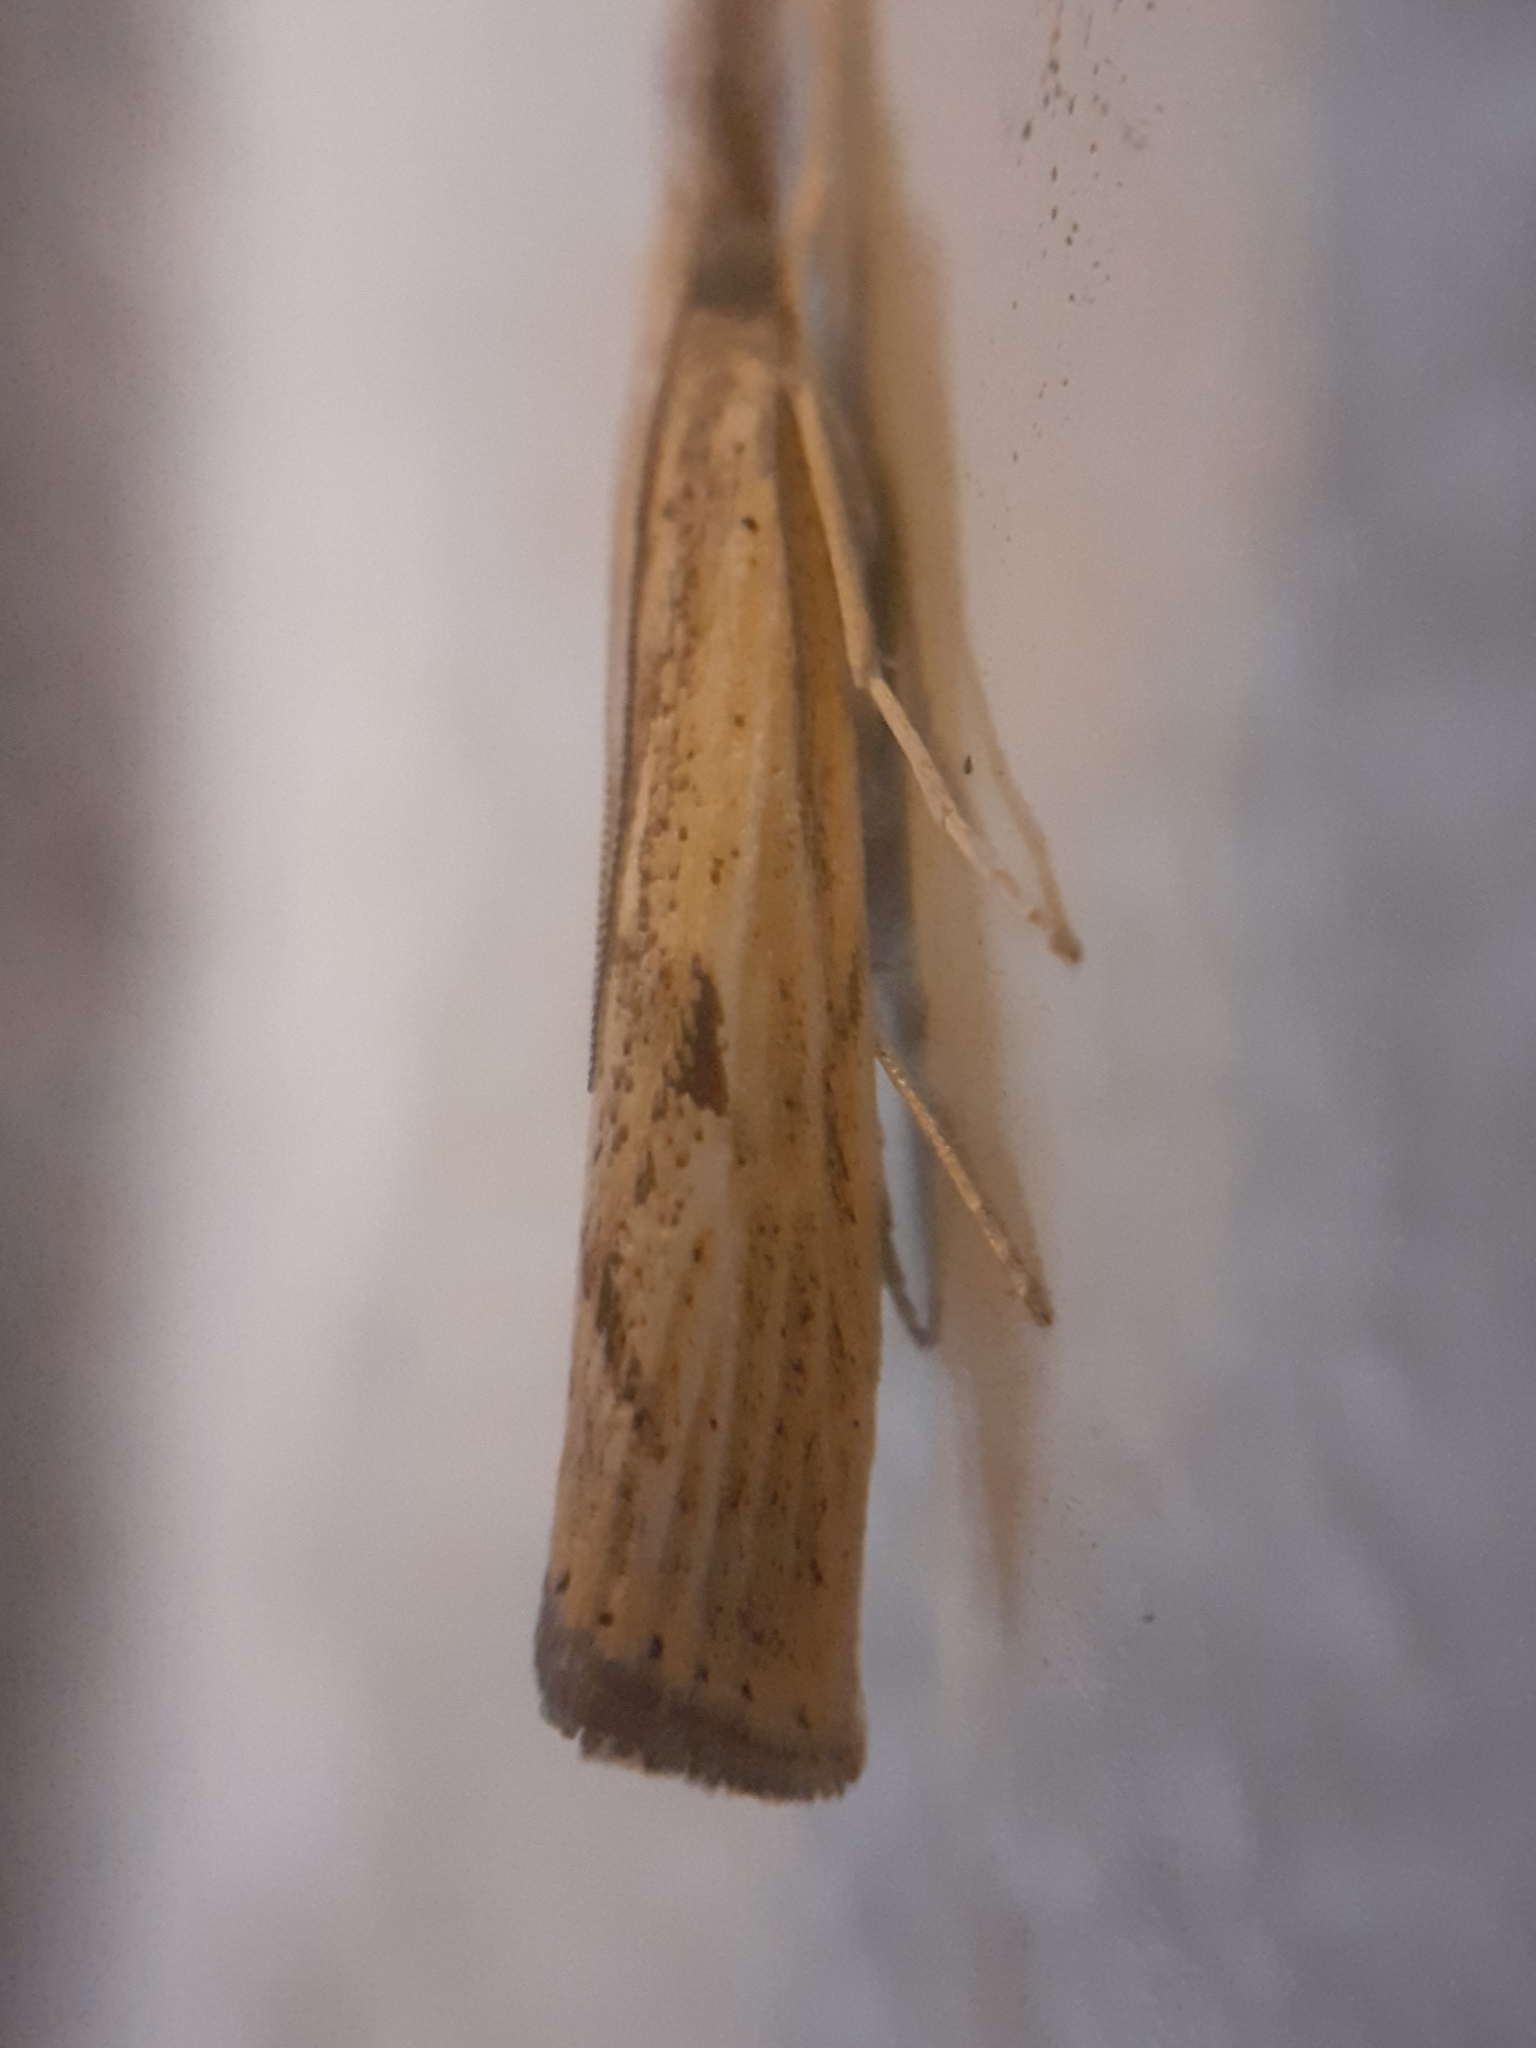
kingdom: Animalia
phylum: Arthropoda
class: Insecta
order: Lepidoptera
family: Crambidae
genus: Agriphila
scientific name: Agriphila inquinatella
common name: Barred grass-veneer
